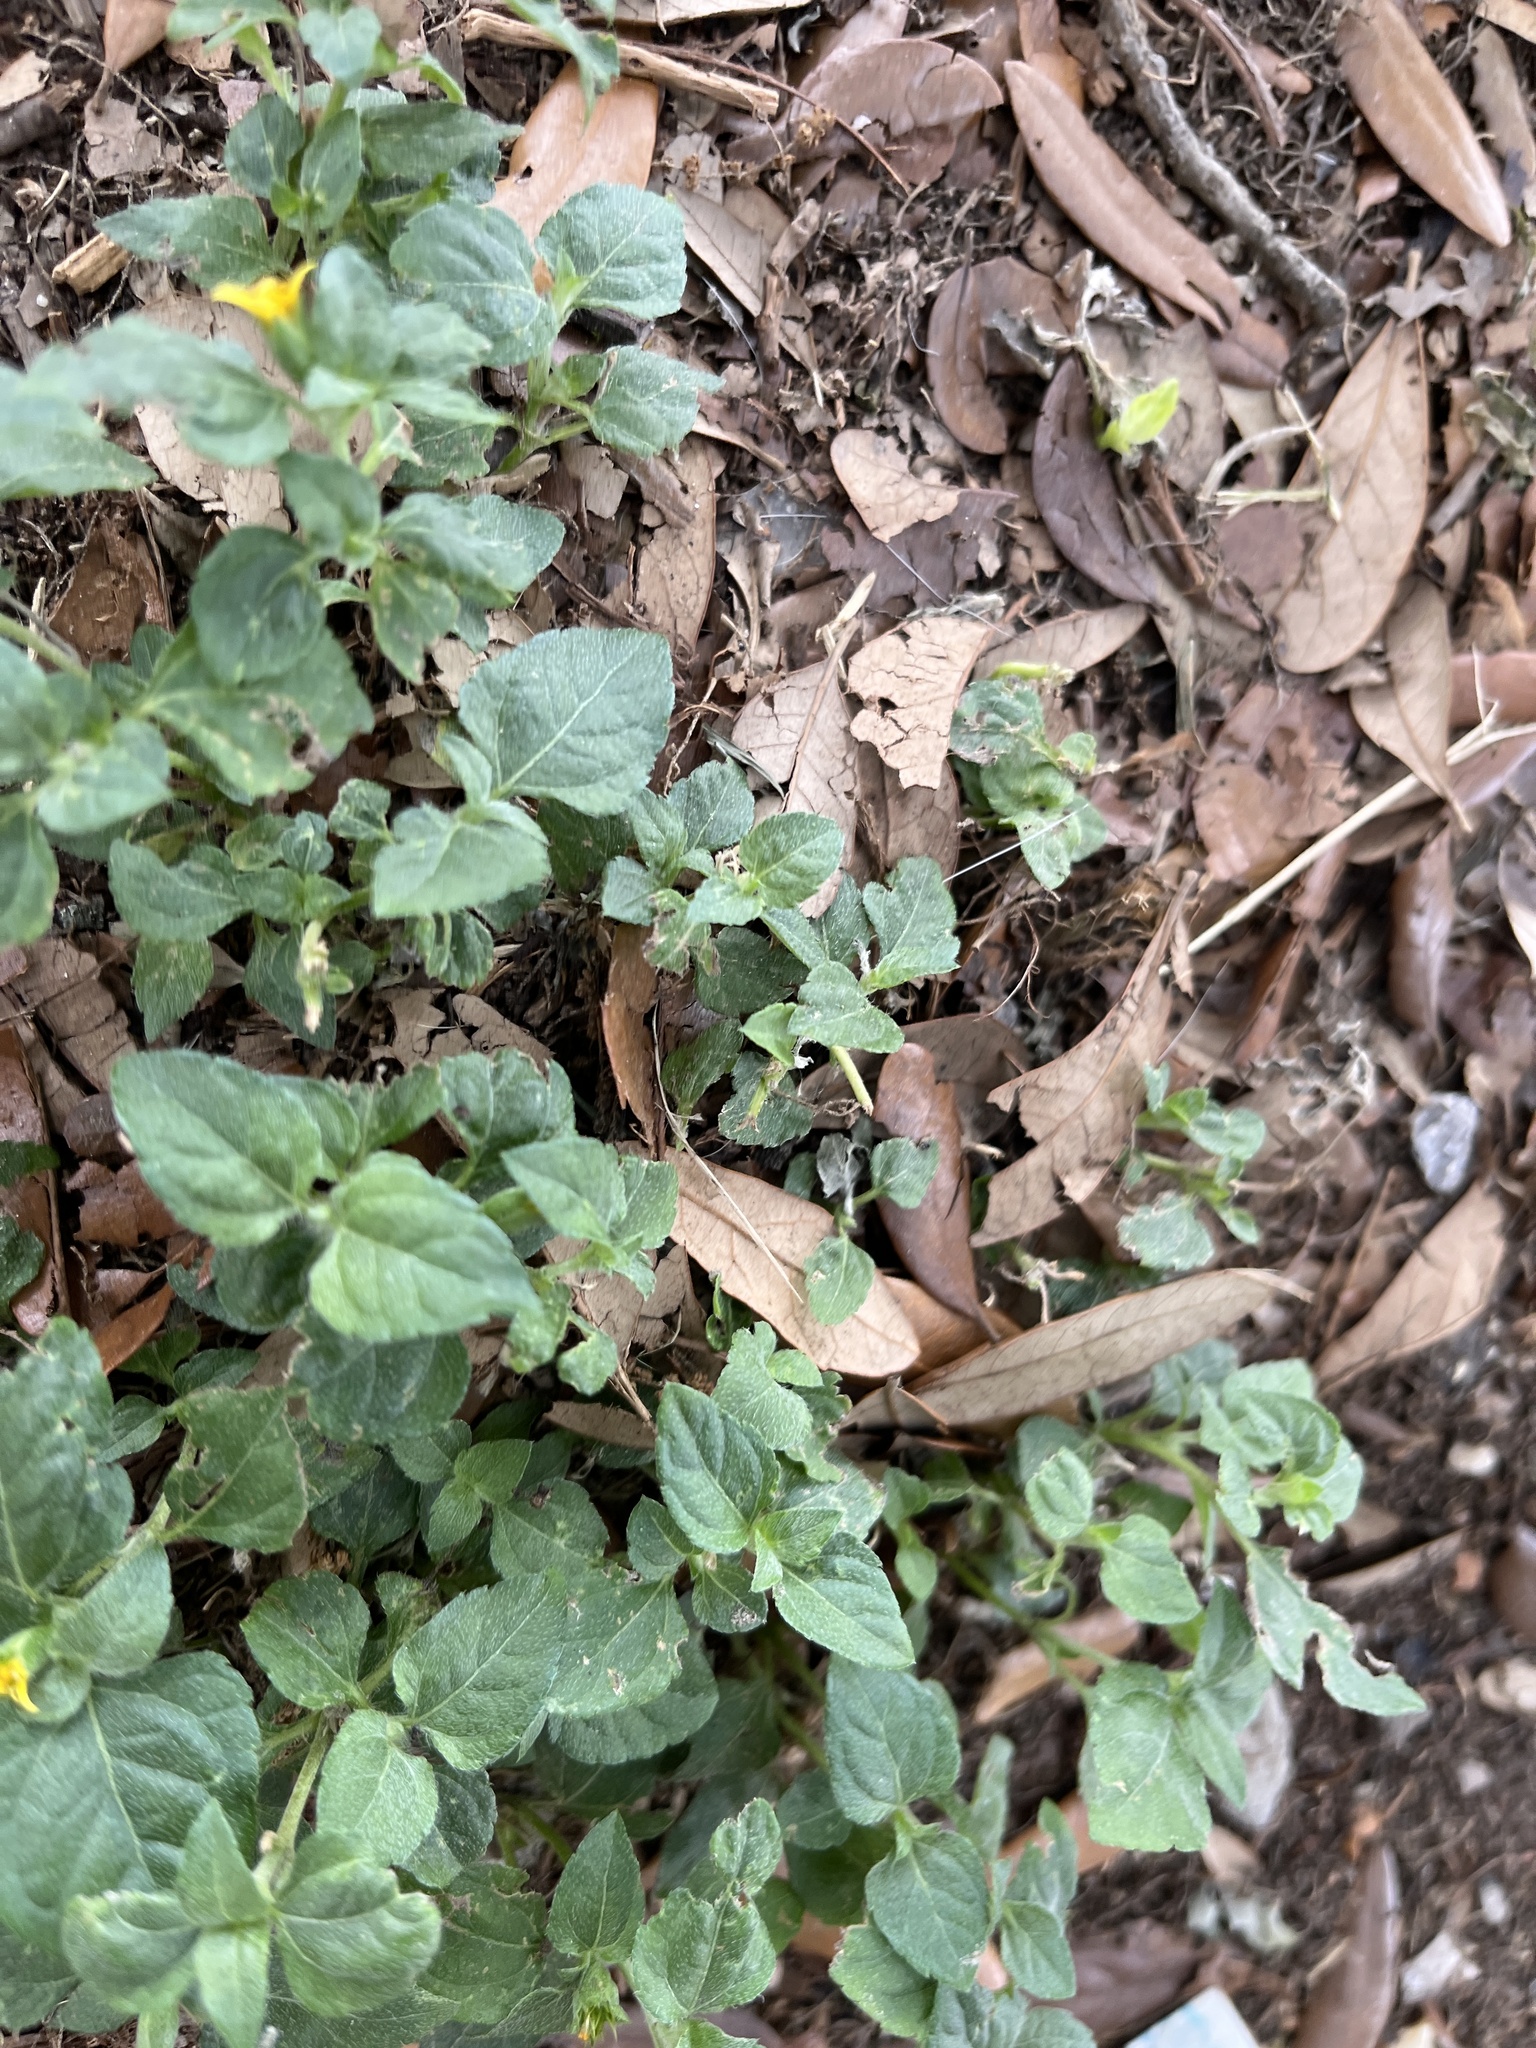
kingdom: Plantae
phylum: Tracheophyta
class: Magnoliopsida
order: Asterales
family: Asteraceae
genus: Calyptocarpus
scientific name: Calyptocarpus vialis
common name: Straggler daisy
